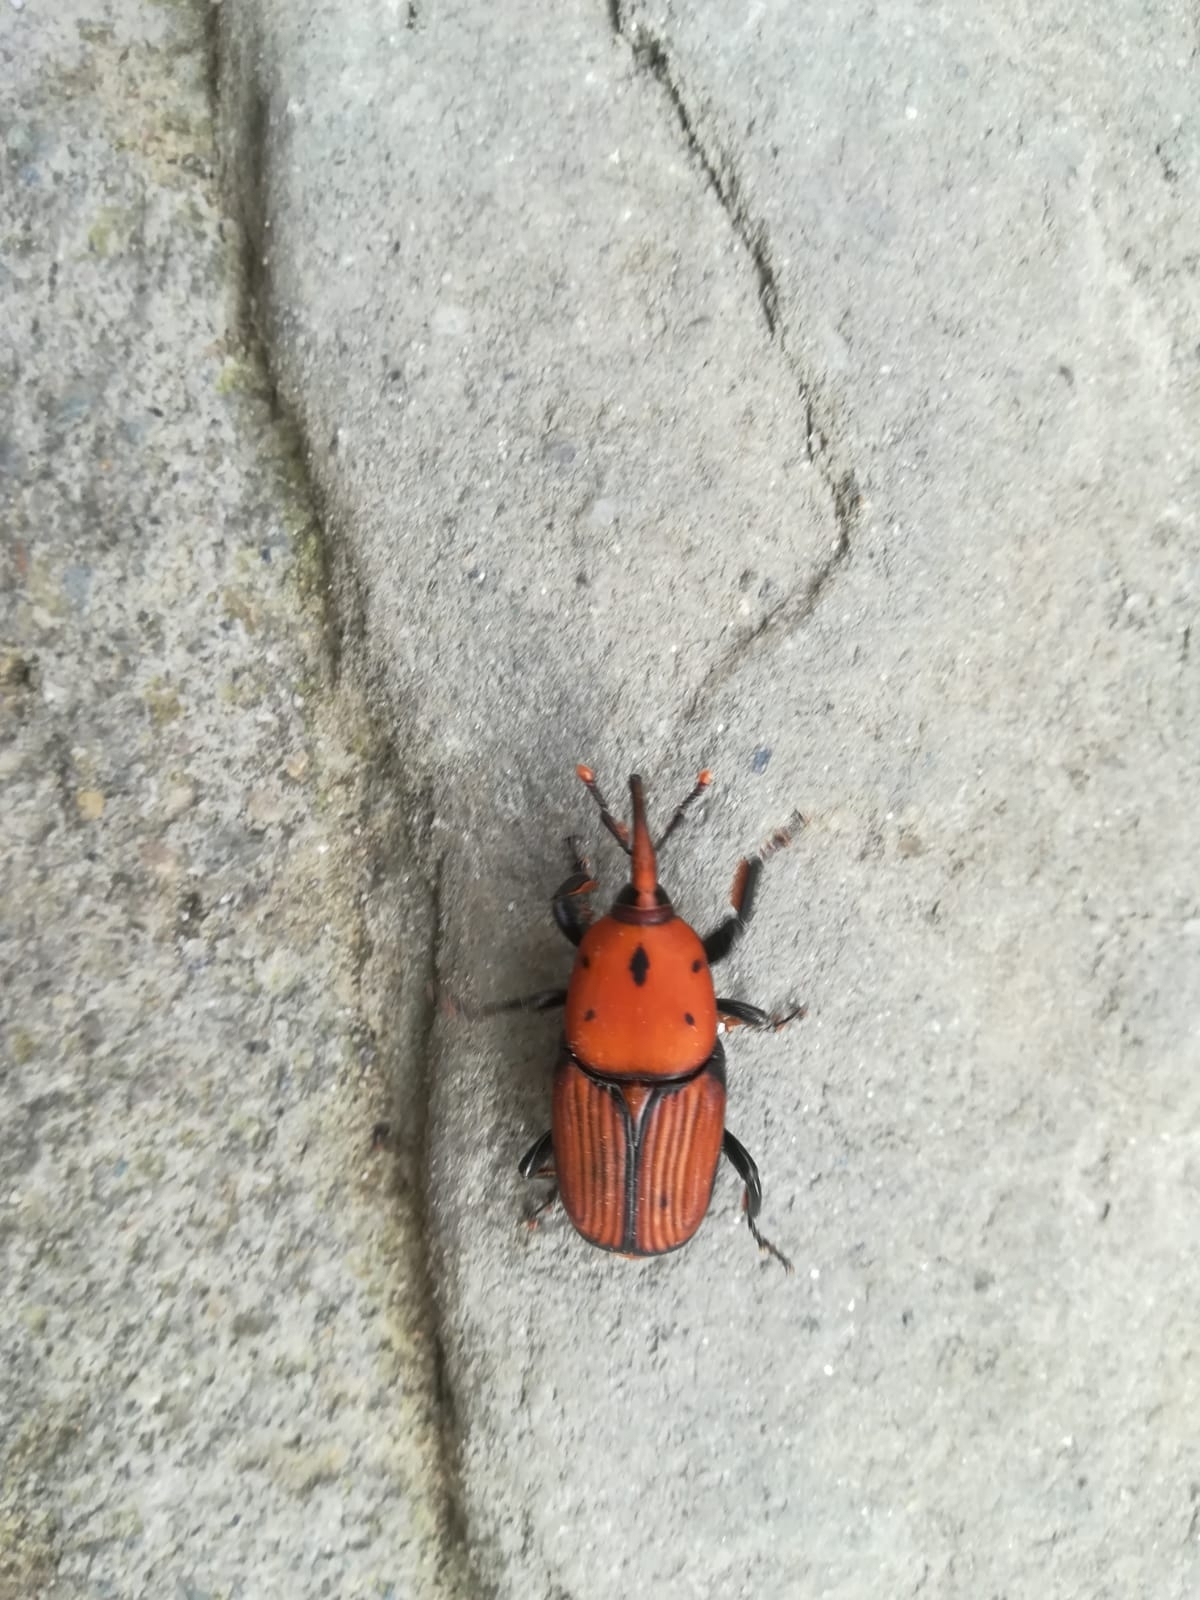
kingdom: Animalia
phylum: Arthropoda
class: Insecta
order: Coleoptera
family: Dryophthoridae
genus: Rhynchophorus
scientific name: Rhynchophorus ferrugineus
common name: Red palm weevil
